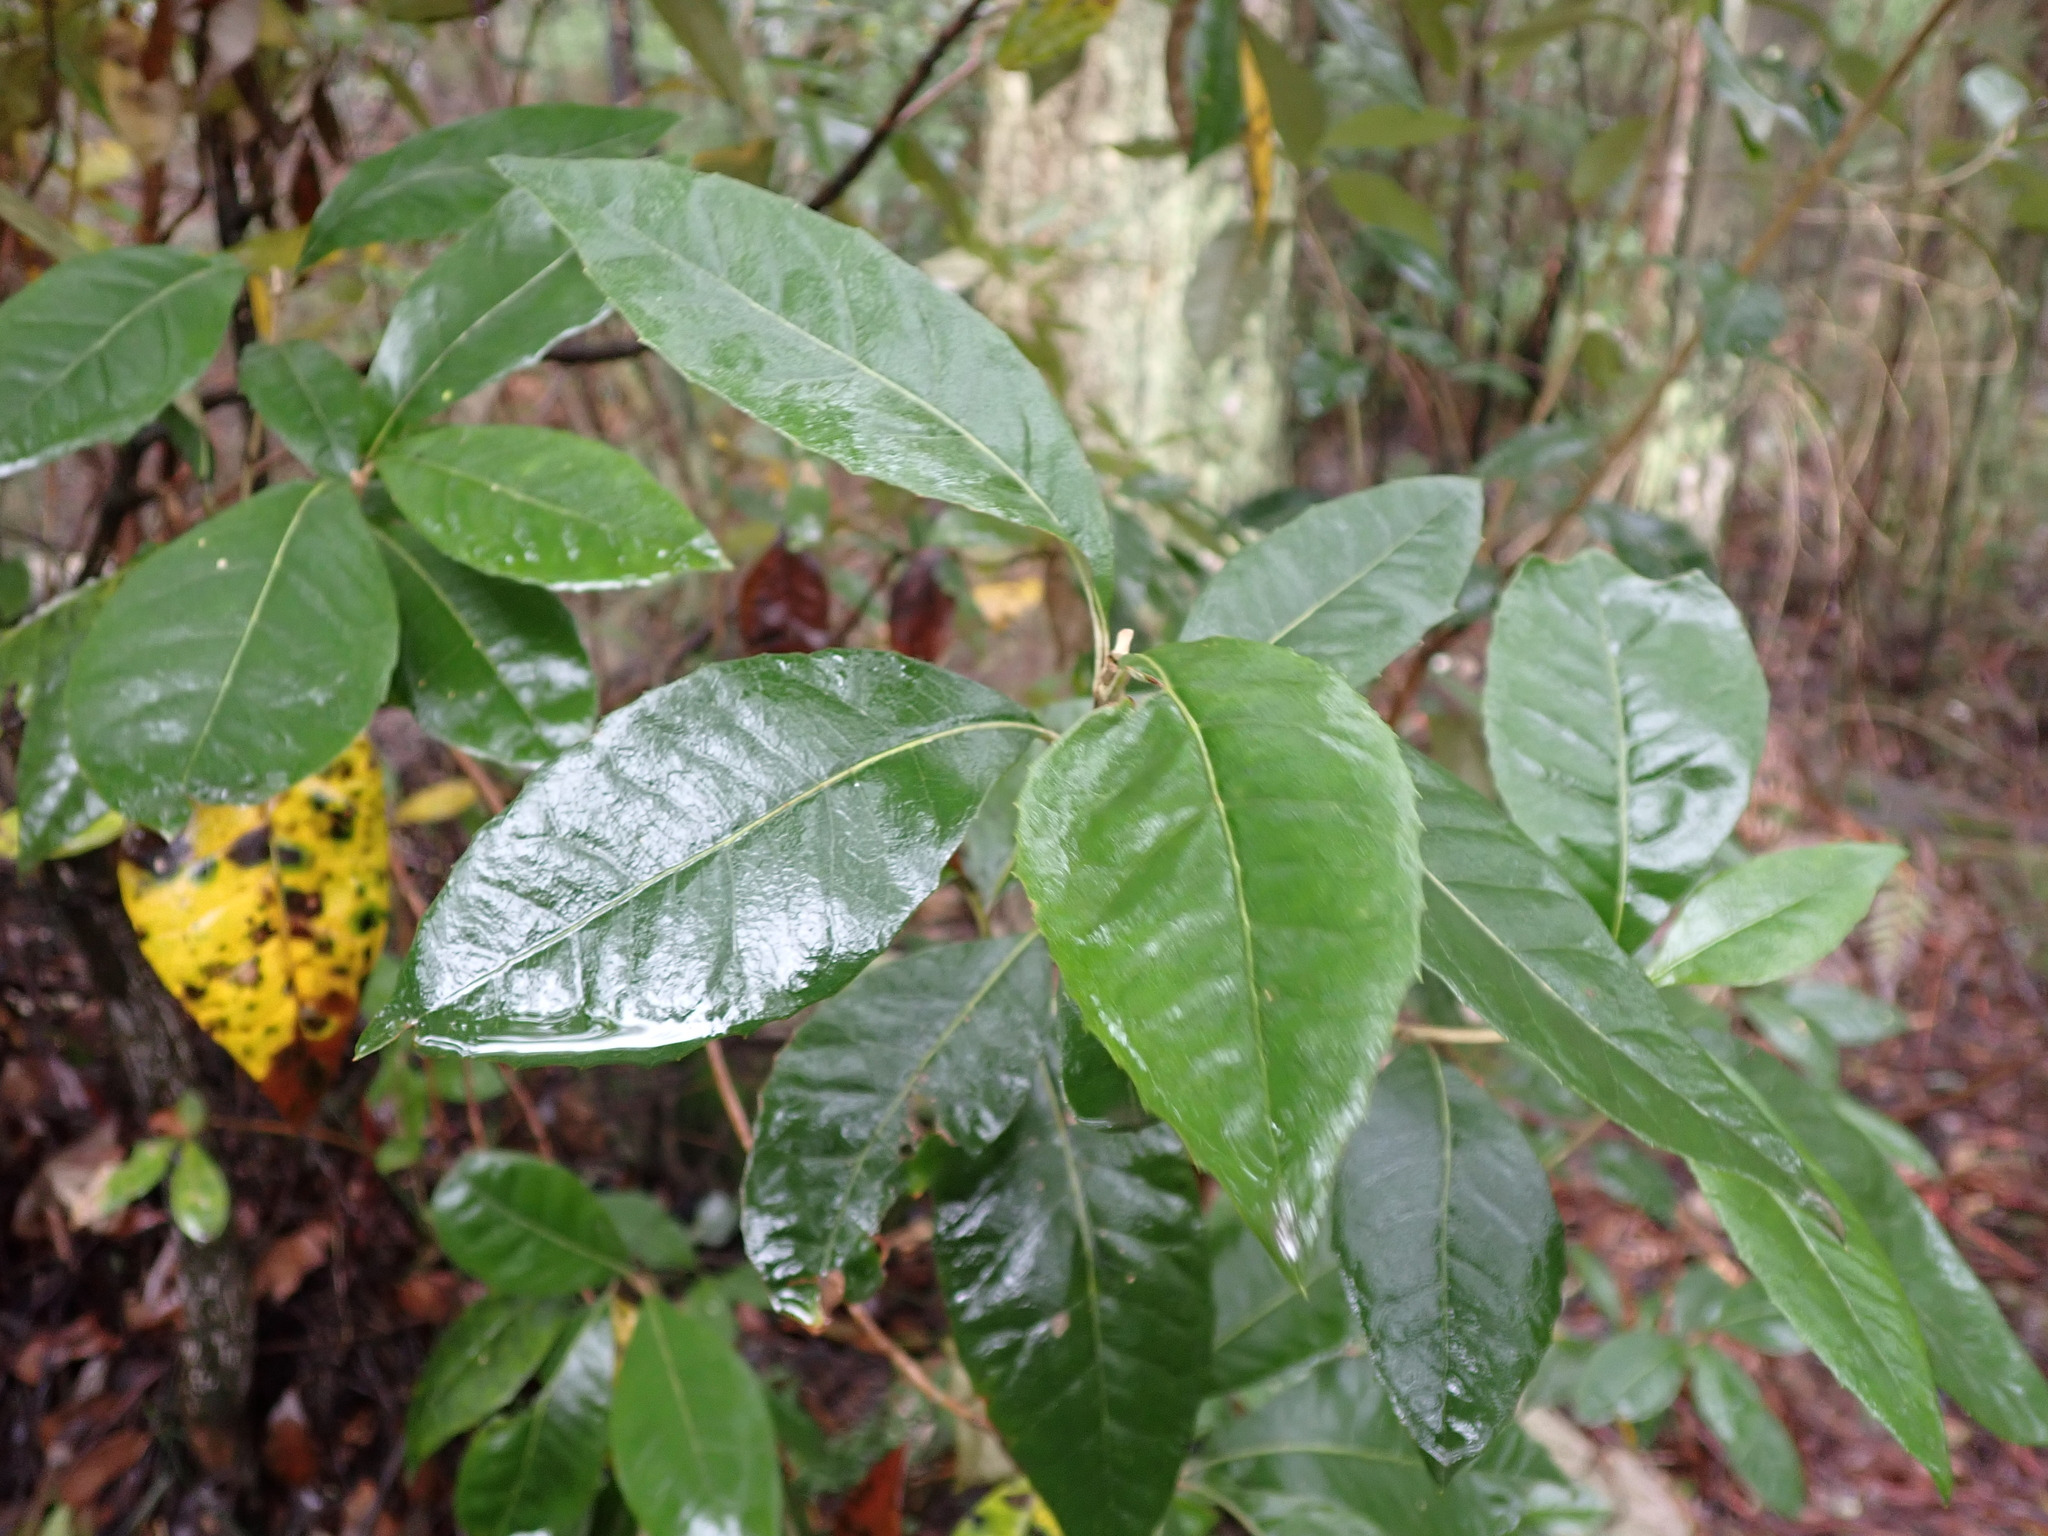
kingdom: Plantae
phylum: Tracheophyta
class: Magnoliopsida
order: Asterales
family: Asteraceae
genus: Olearia
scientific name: Olearia argophylla
